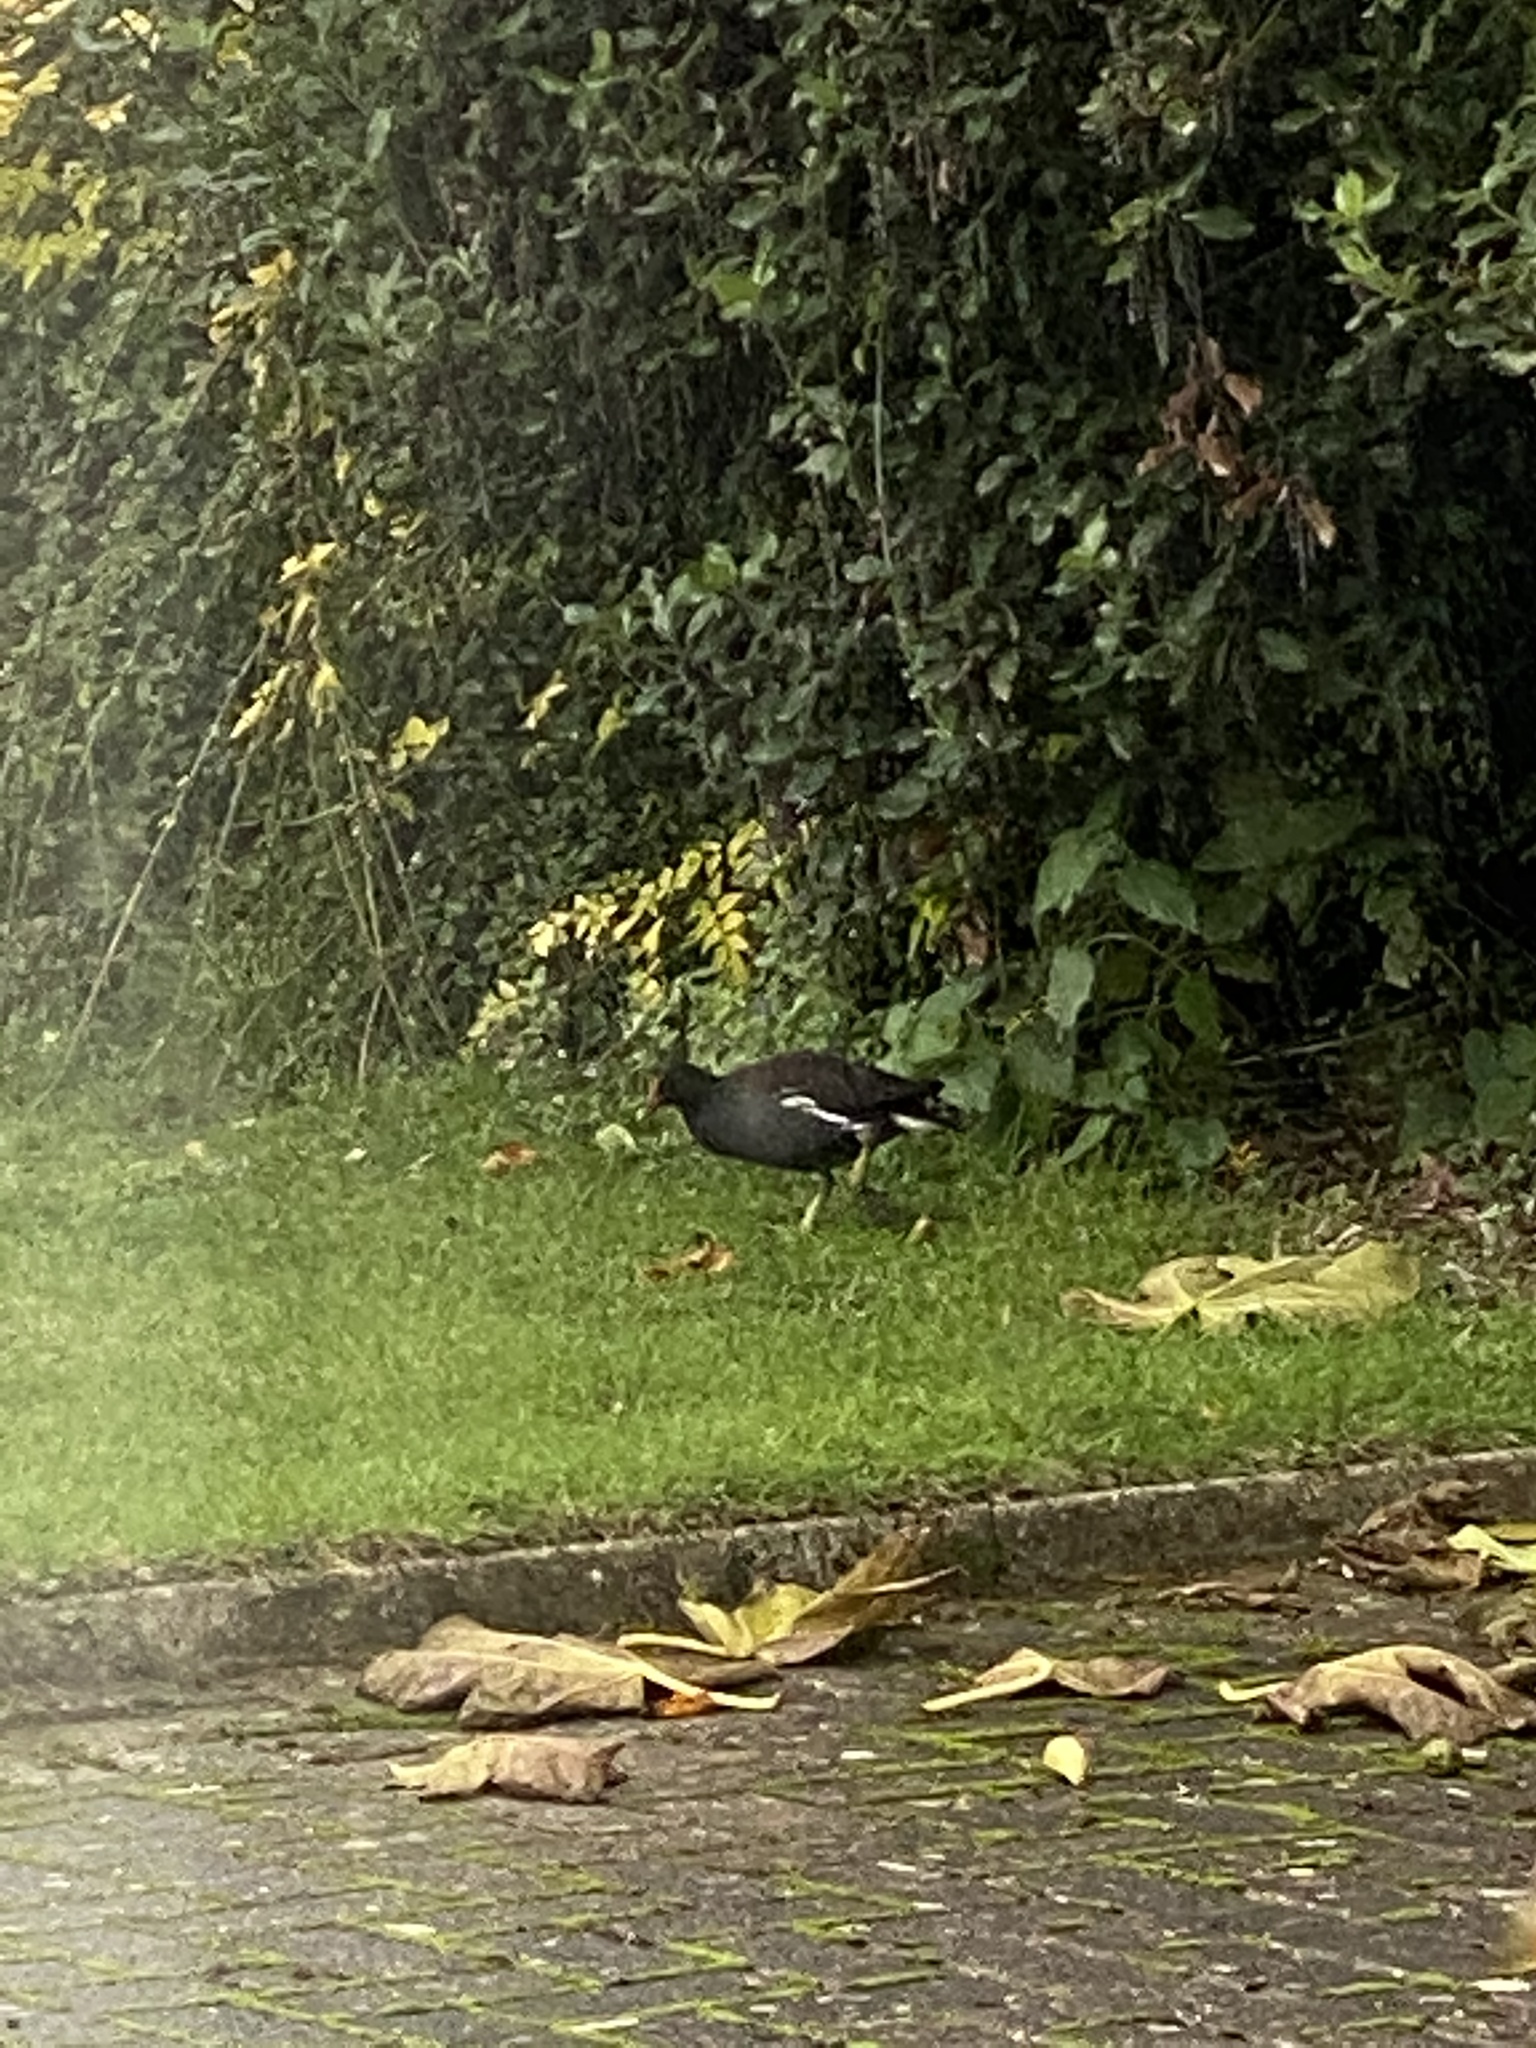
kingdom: Animalia
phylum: Chordata
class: Aves
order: Gruiformes
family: Rallidae
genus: Gallinula
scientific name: Gallinula chloropus
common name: Common moorhen
